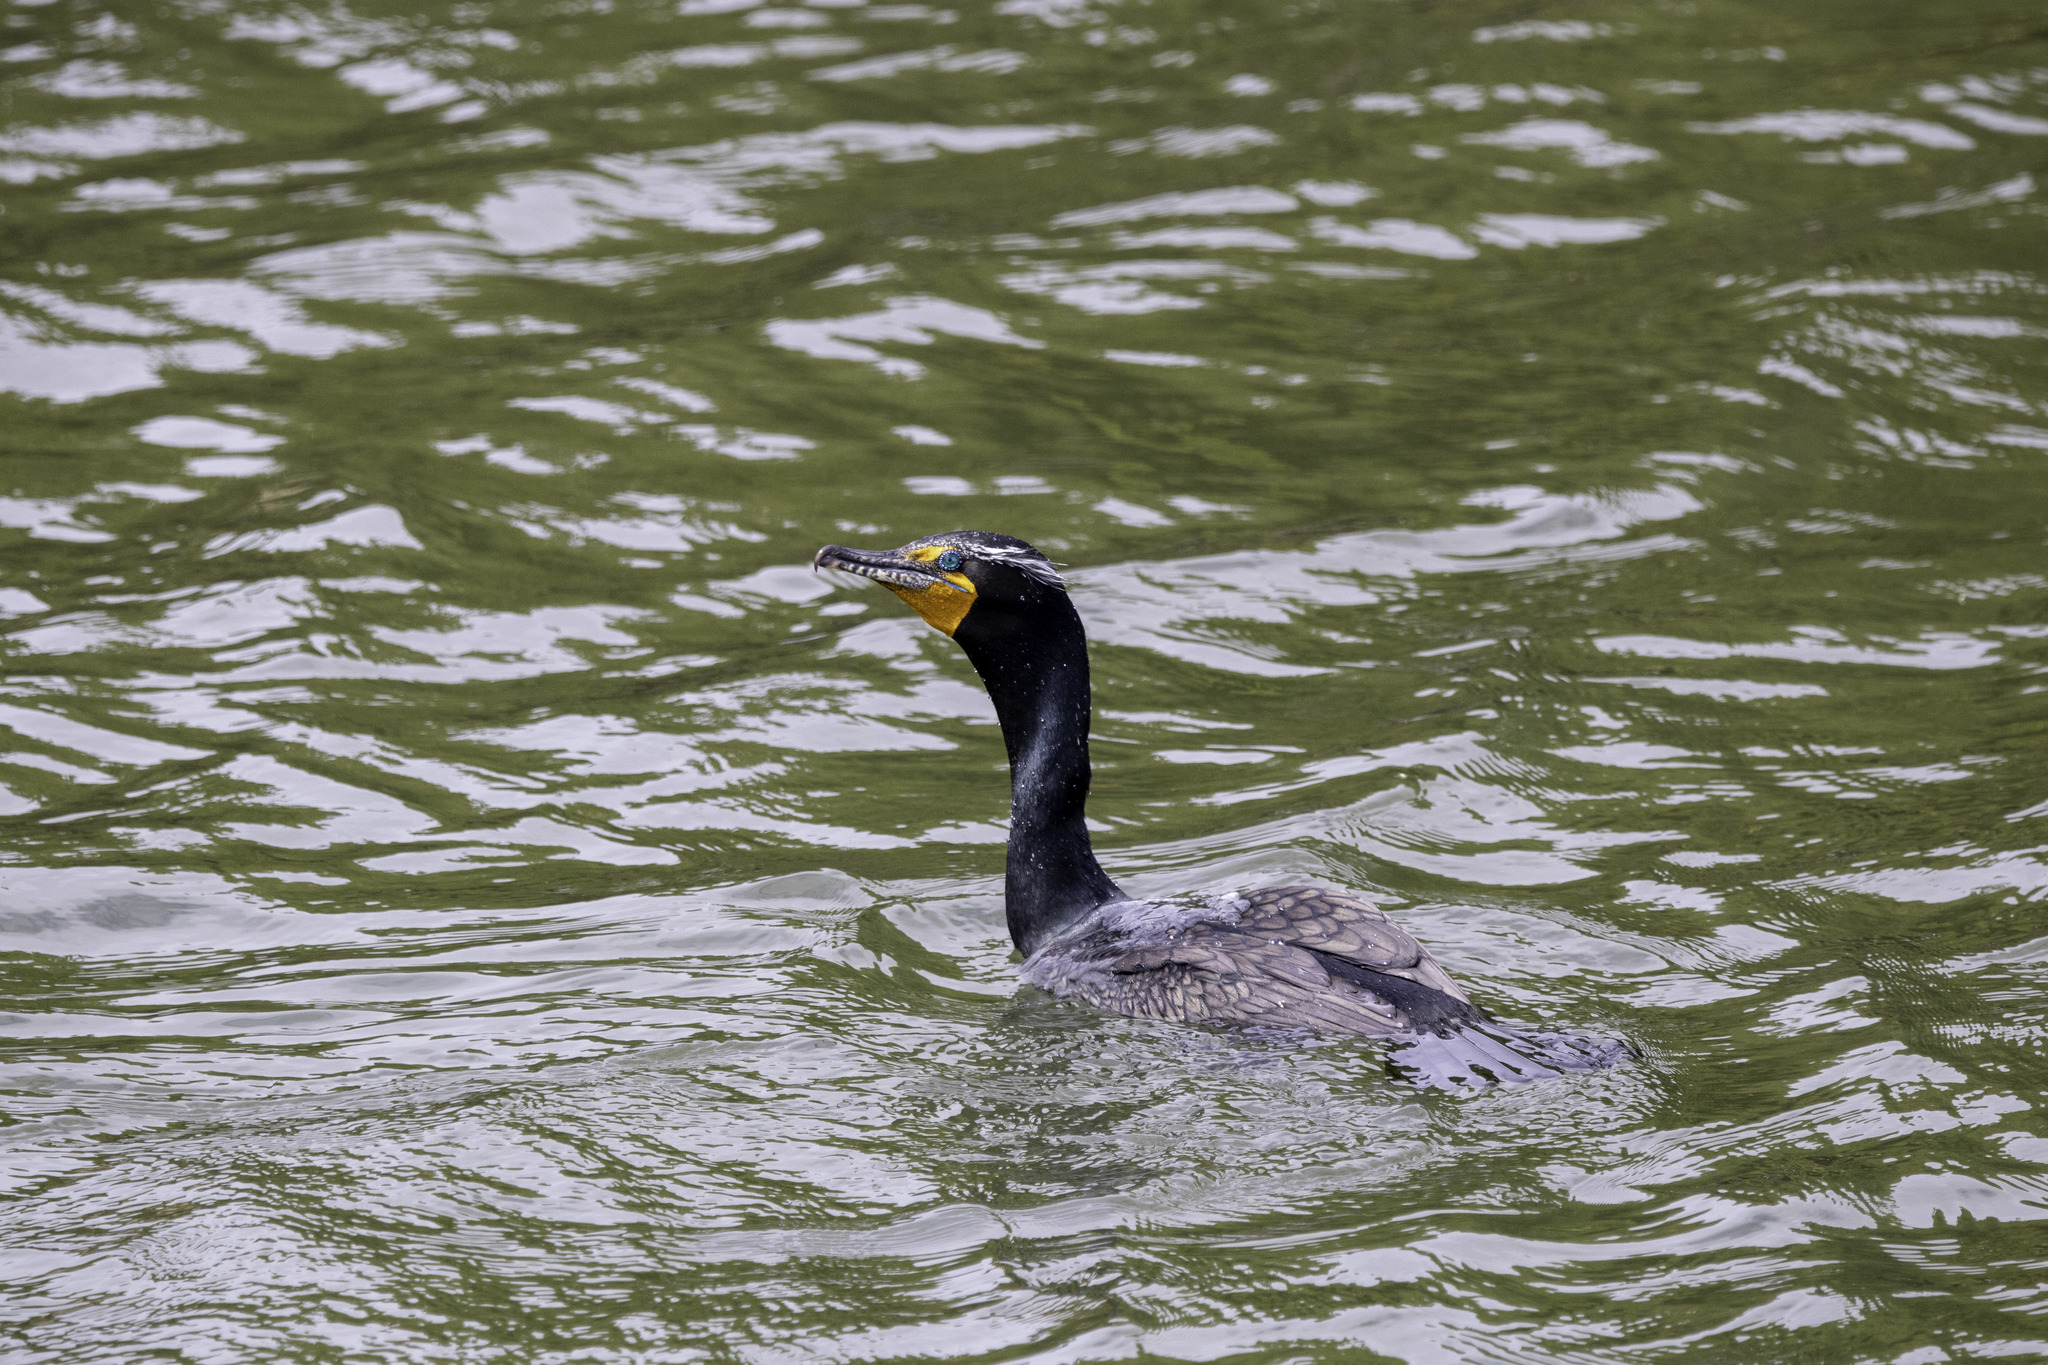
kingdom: Animalia
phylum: Chordata
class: Aves
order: Suliformes
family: Phalacrocoracidae
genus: Phalacrocorax
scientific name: Phalacrocorax auritus
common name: Double-crested cormorant
